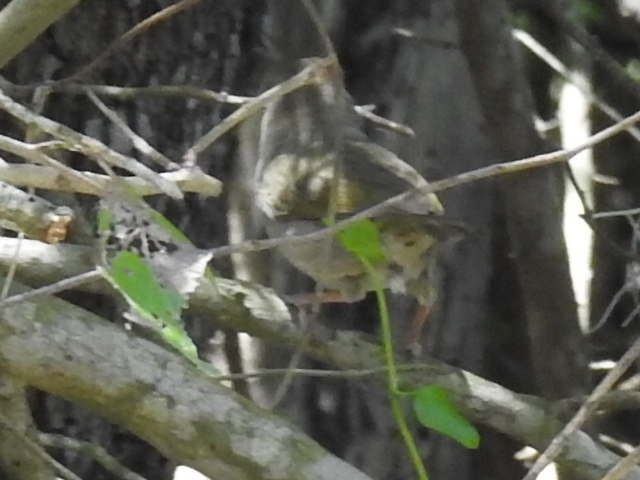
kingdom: Animalia
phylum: Chordata
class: Aves
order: Passeriformes
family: Passerellidae
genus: Arremonops
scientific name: Arremonops rufivirgatus
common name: Olive sparrow
